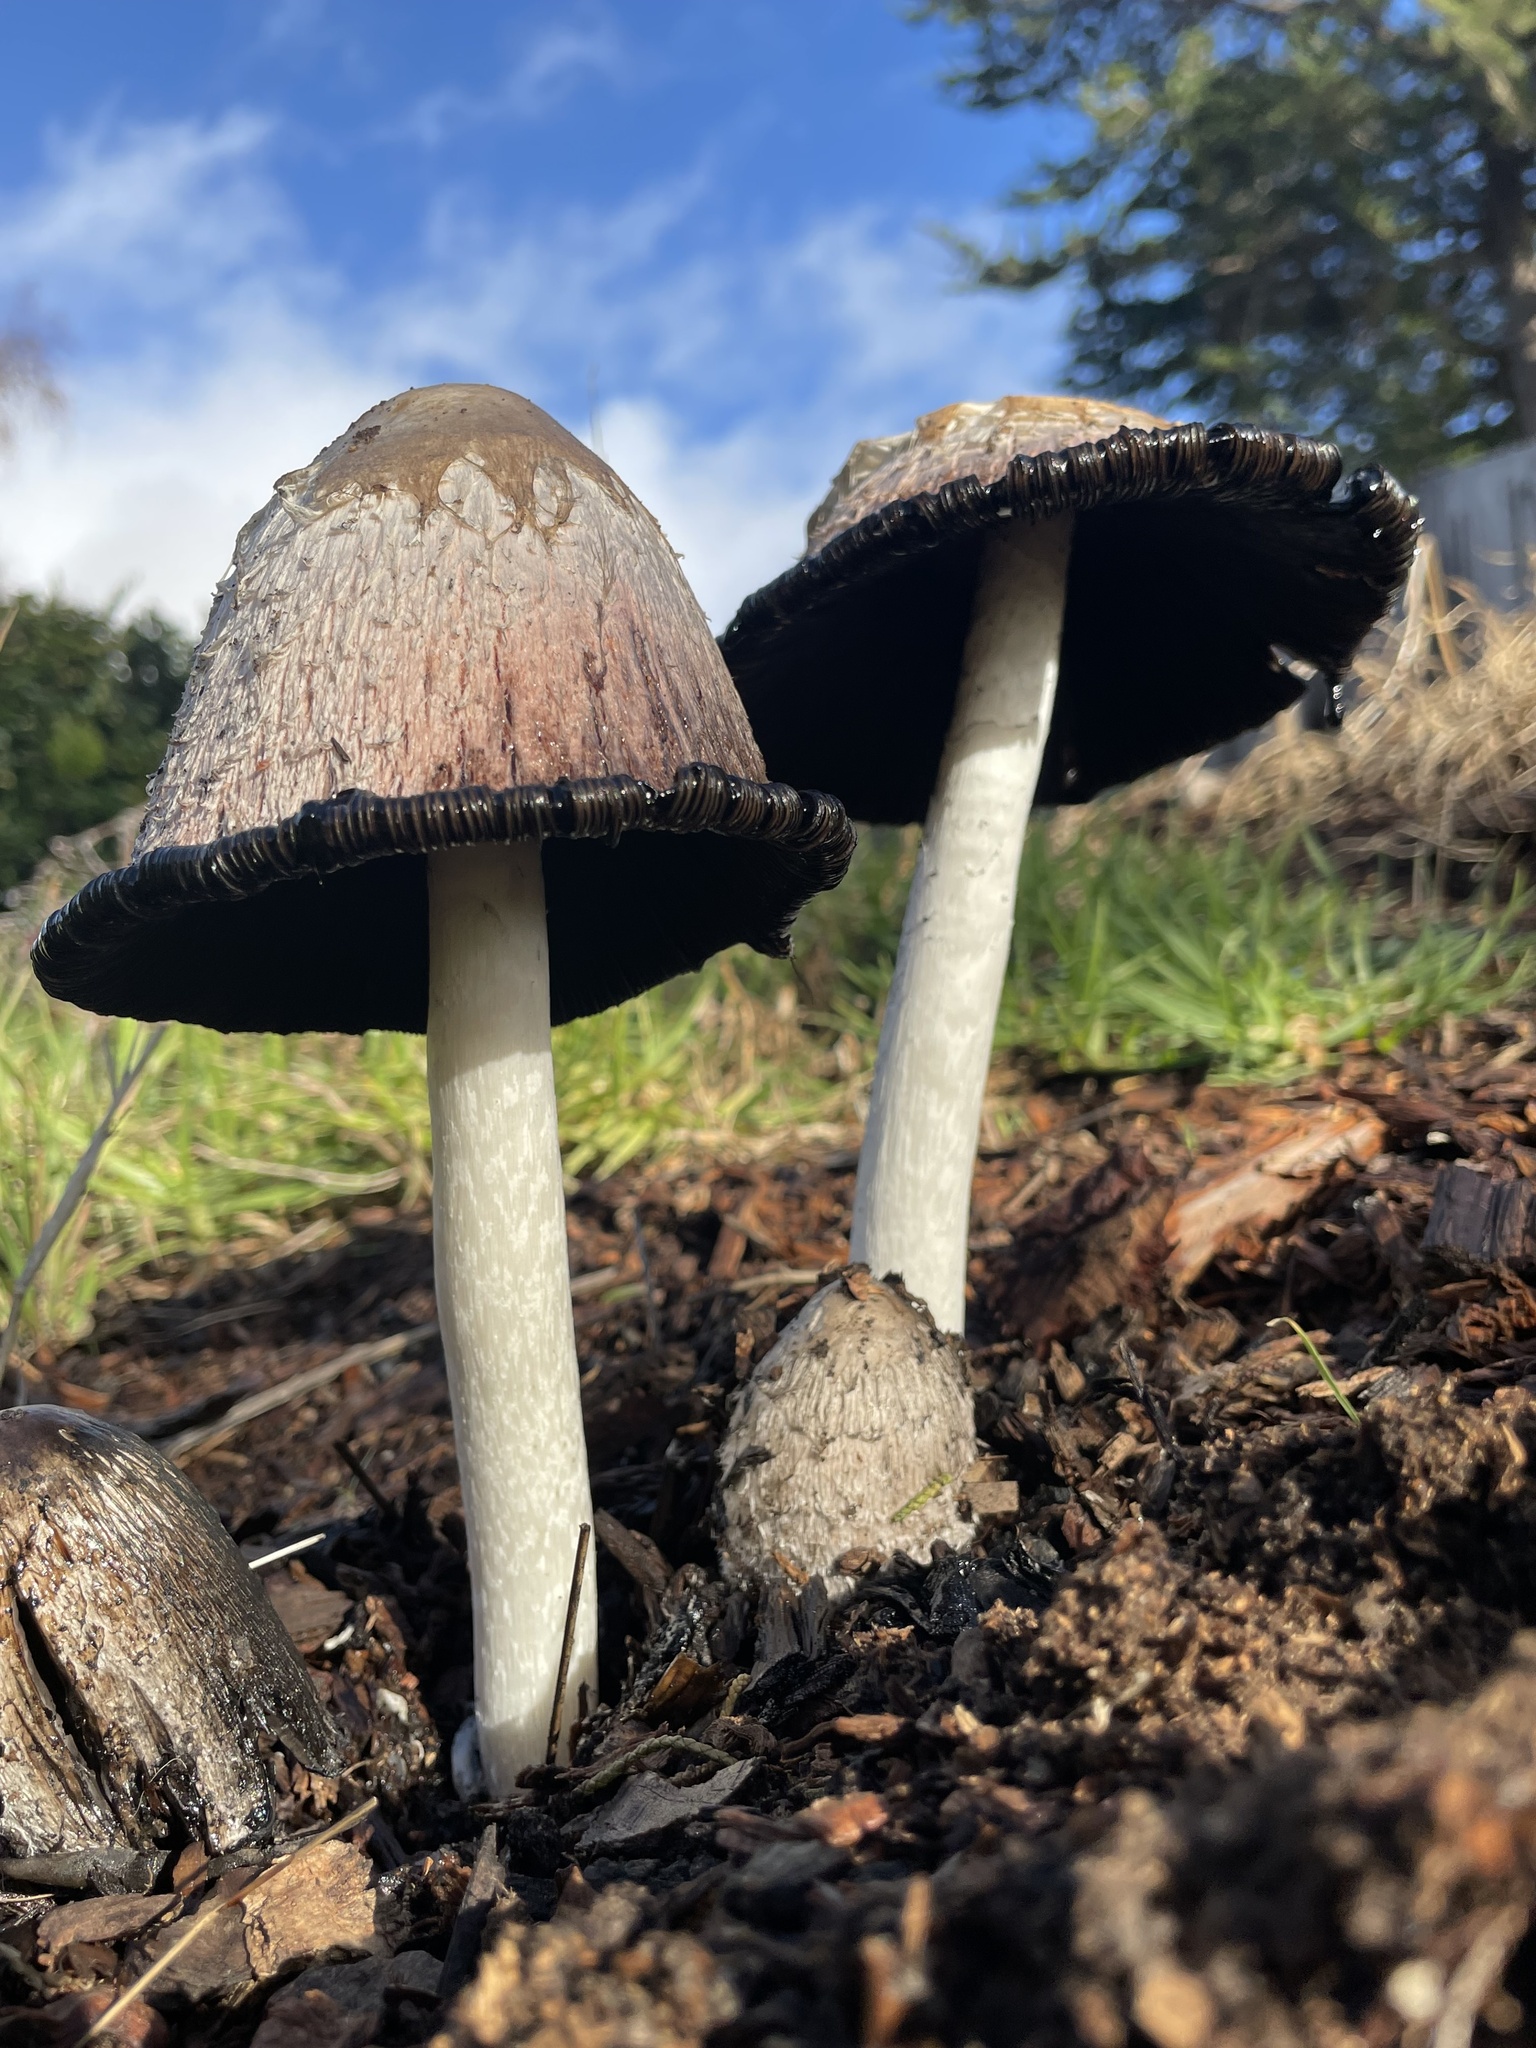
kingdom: Fungi
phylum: Basidiomycota
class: Agaricomycetes
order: Agaricales
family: Agaricaceae
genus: Coprinus
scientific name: Coprinus comatus
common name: Lawyer's wig
